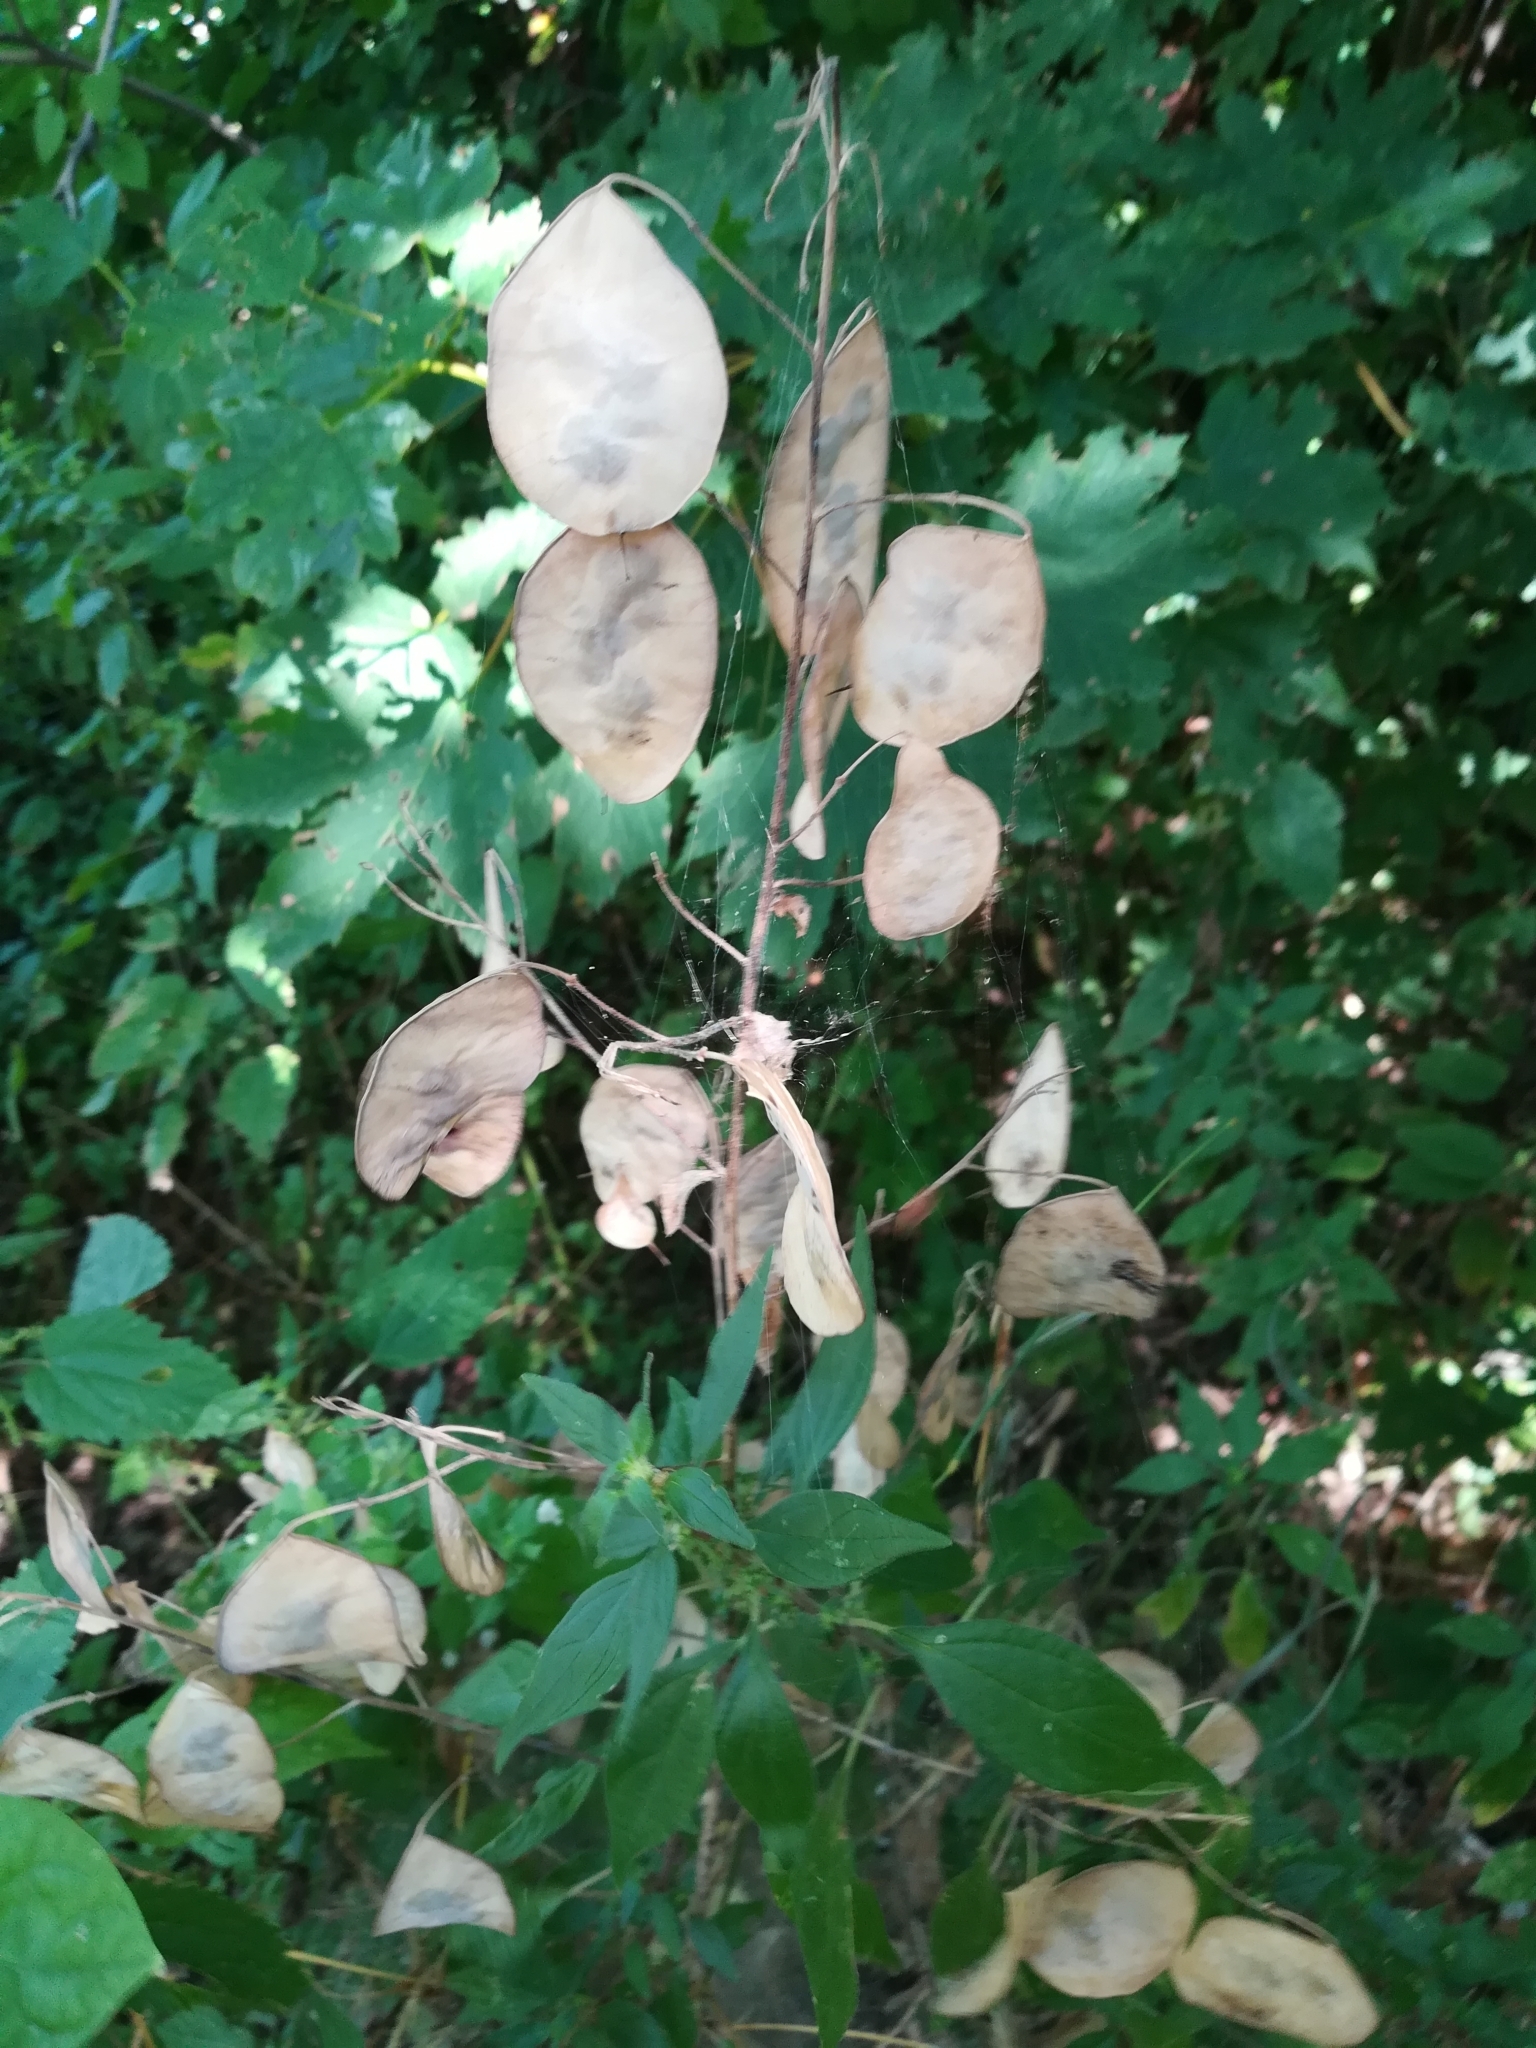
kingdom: Plantae
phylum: Tracheophyta
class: Magnoliopsida
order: Brassicales
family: Brassicaceae
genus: Lunaria
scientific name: Lunaria annua
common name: Honesty
